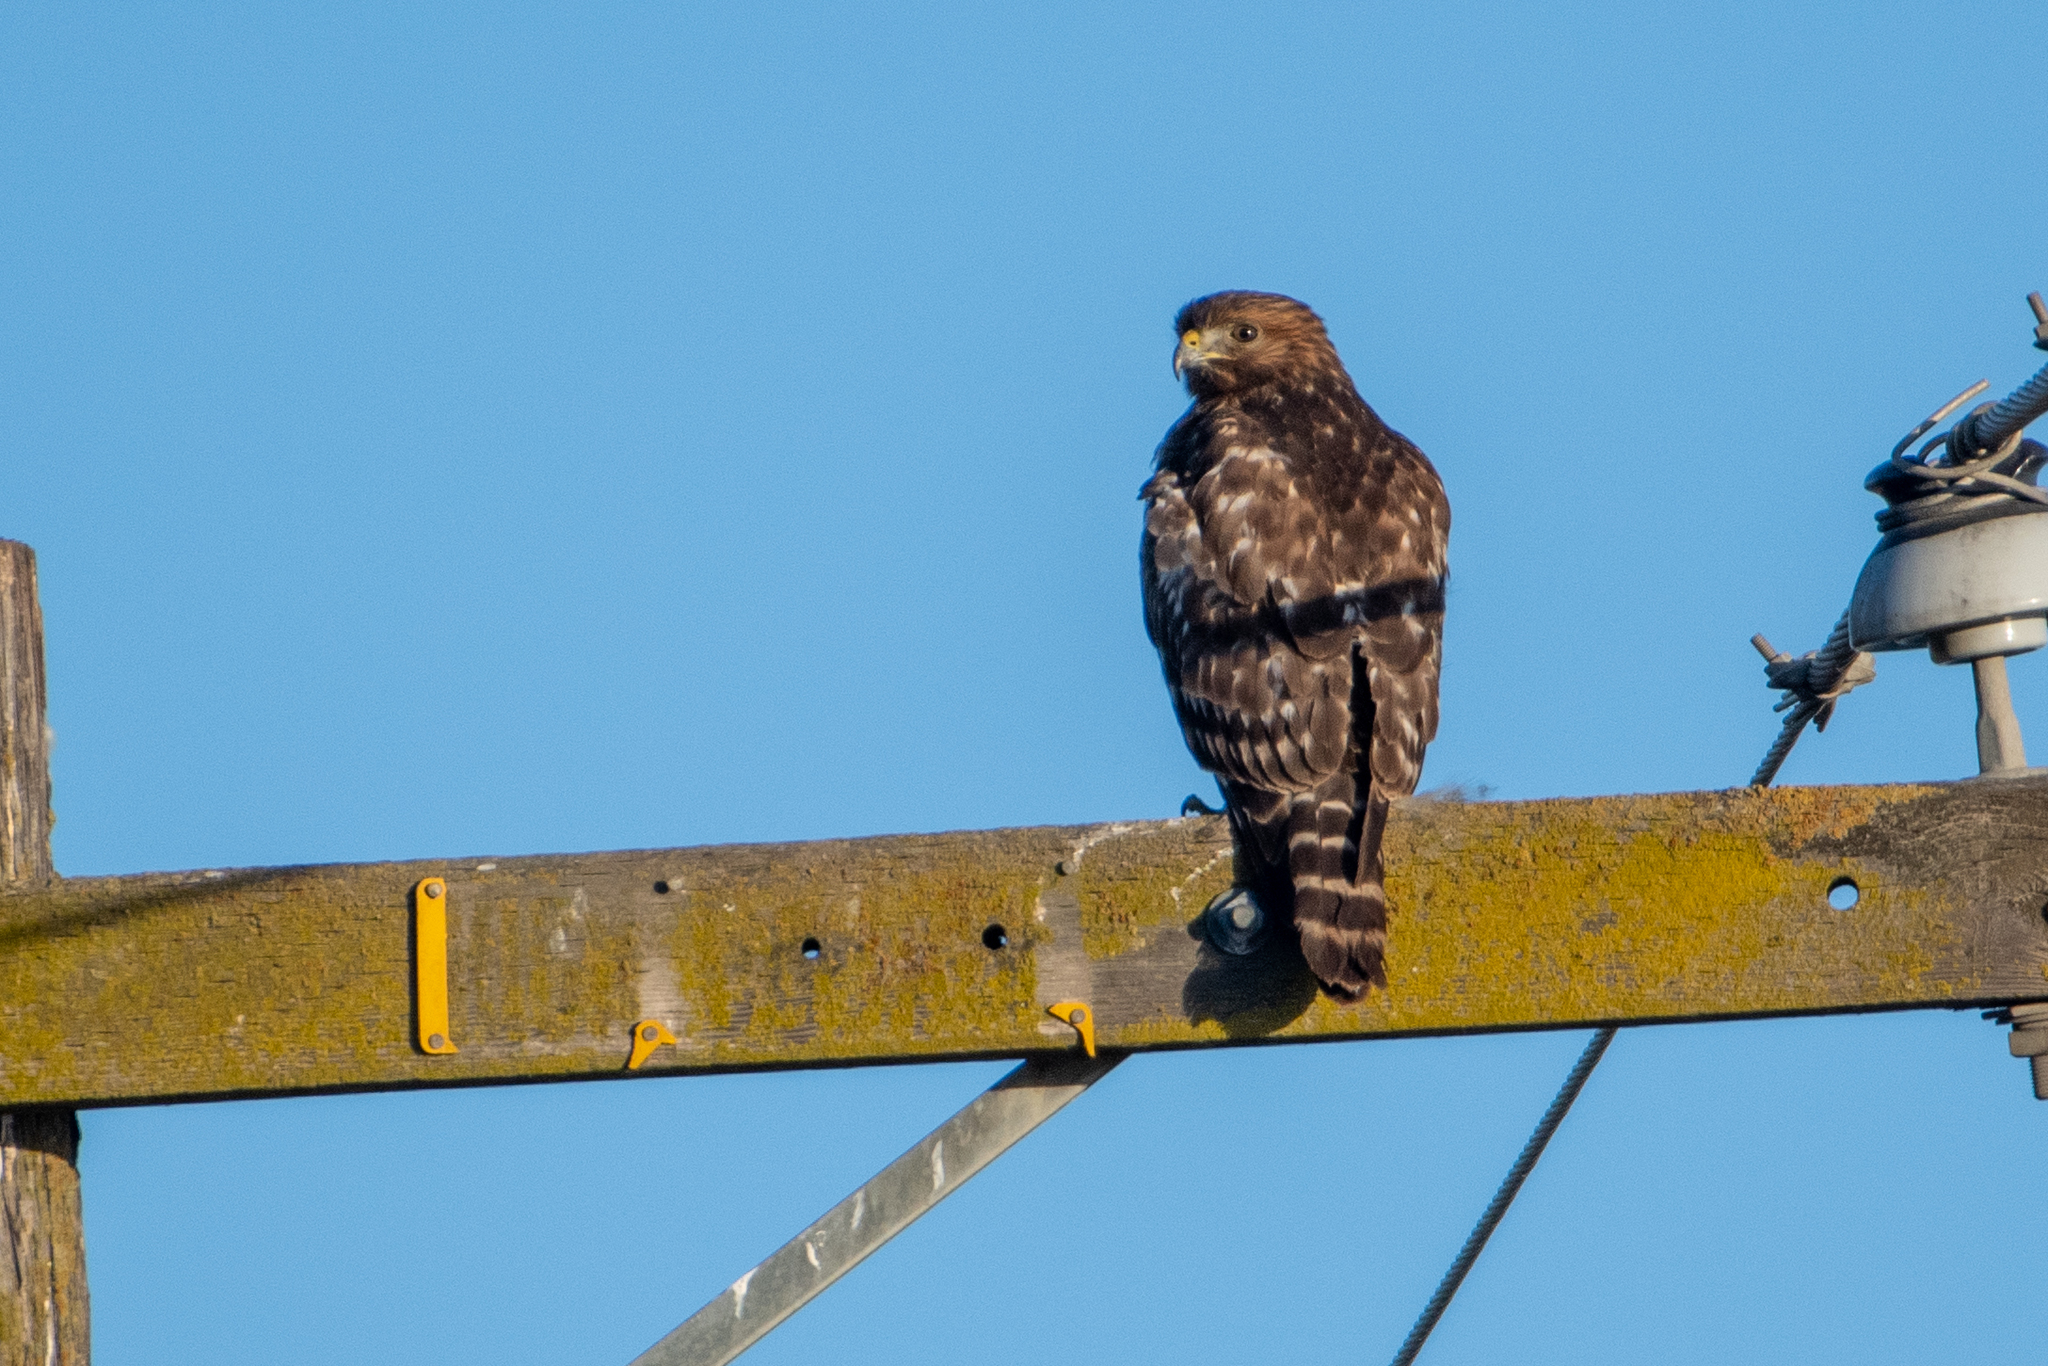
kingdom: Animalia
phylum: Chordata
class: Aves
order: Accipitriformes
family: Accipitridae
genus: Buteo
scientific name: Buteo lineatus
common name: Red-shouldered hawk
